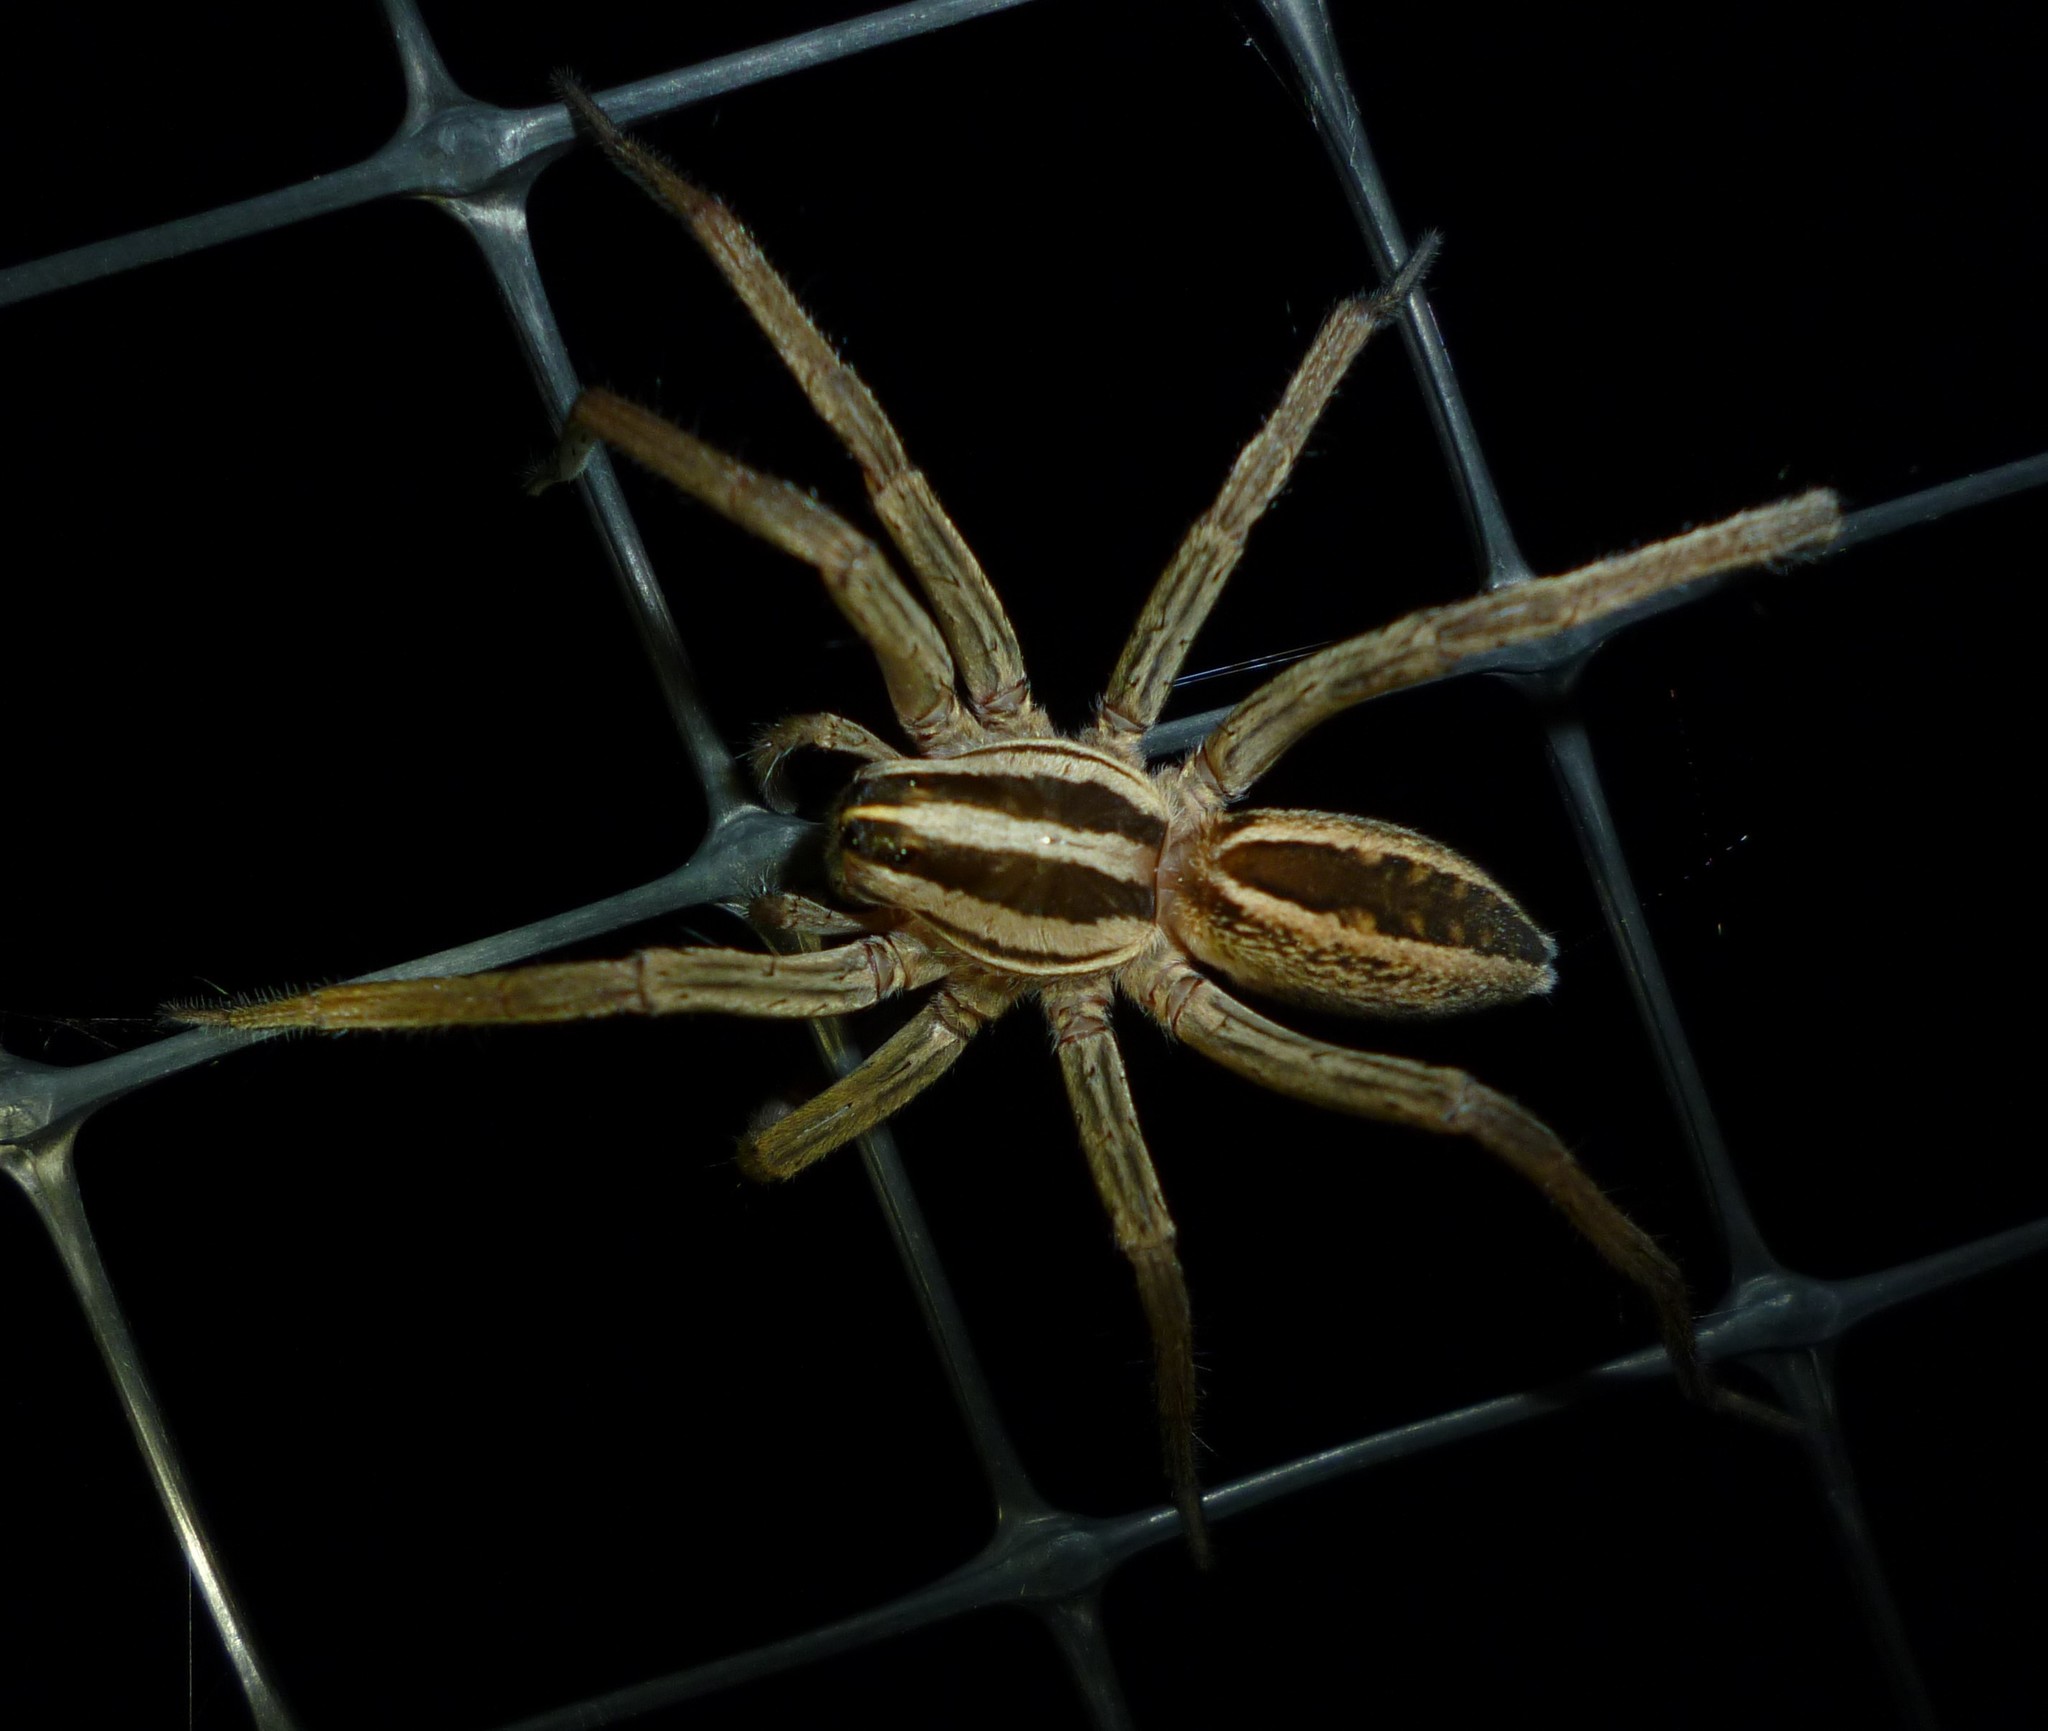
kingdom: Animalia
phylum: Arthropoda
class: Arachnida
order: Araneae
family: Lycosidae
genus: Rabidosa
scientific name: Rabidosa rabida
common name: Rabid wolf spider
